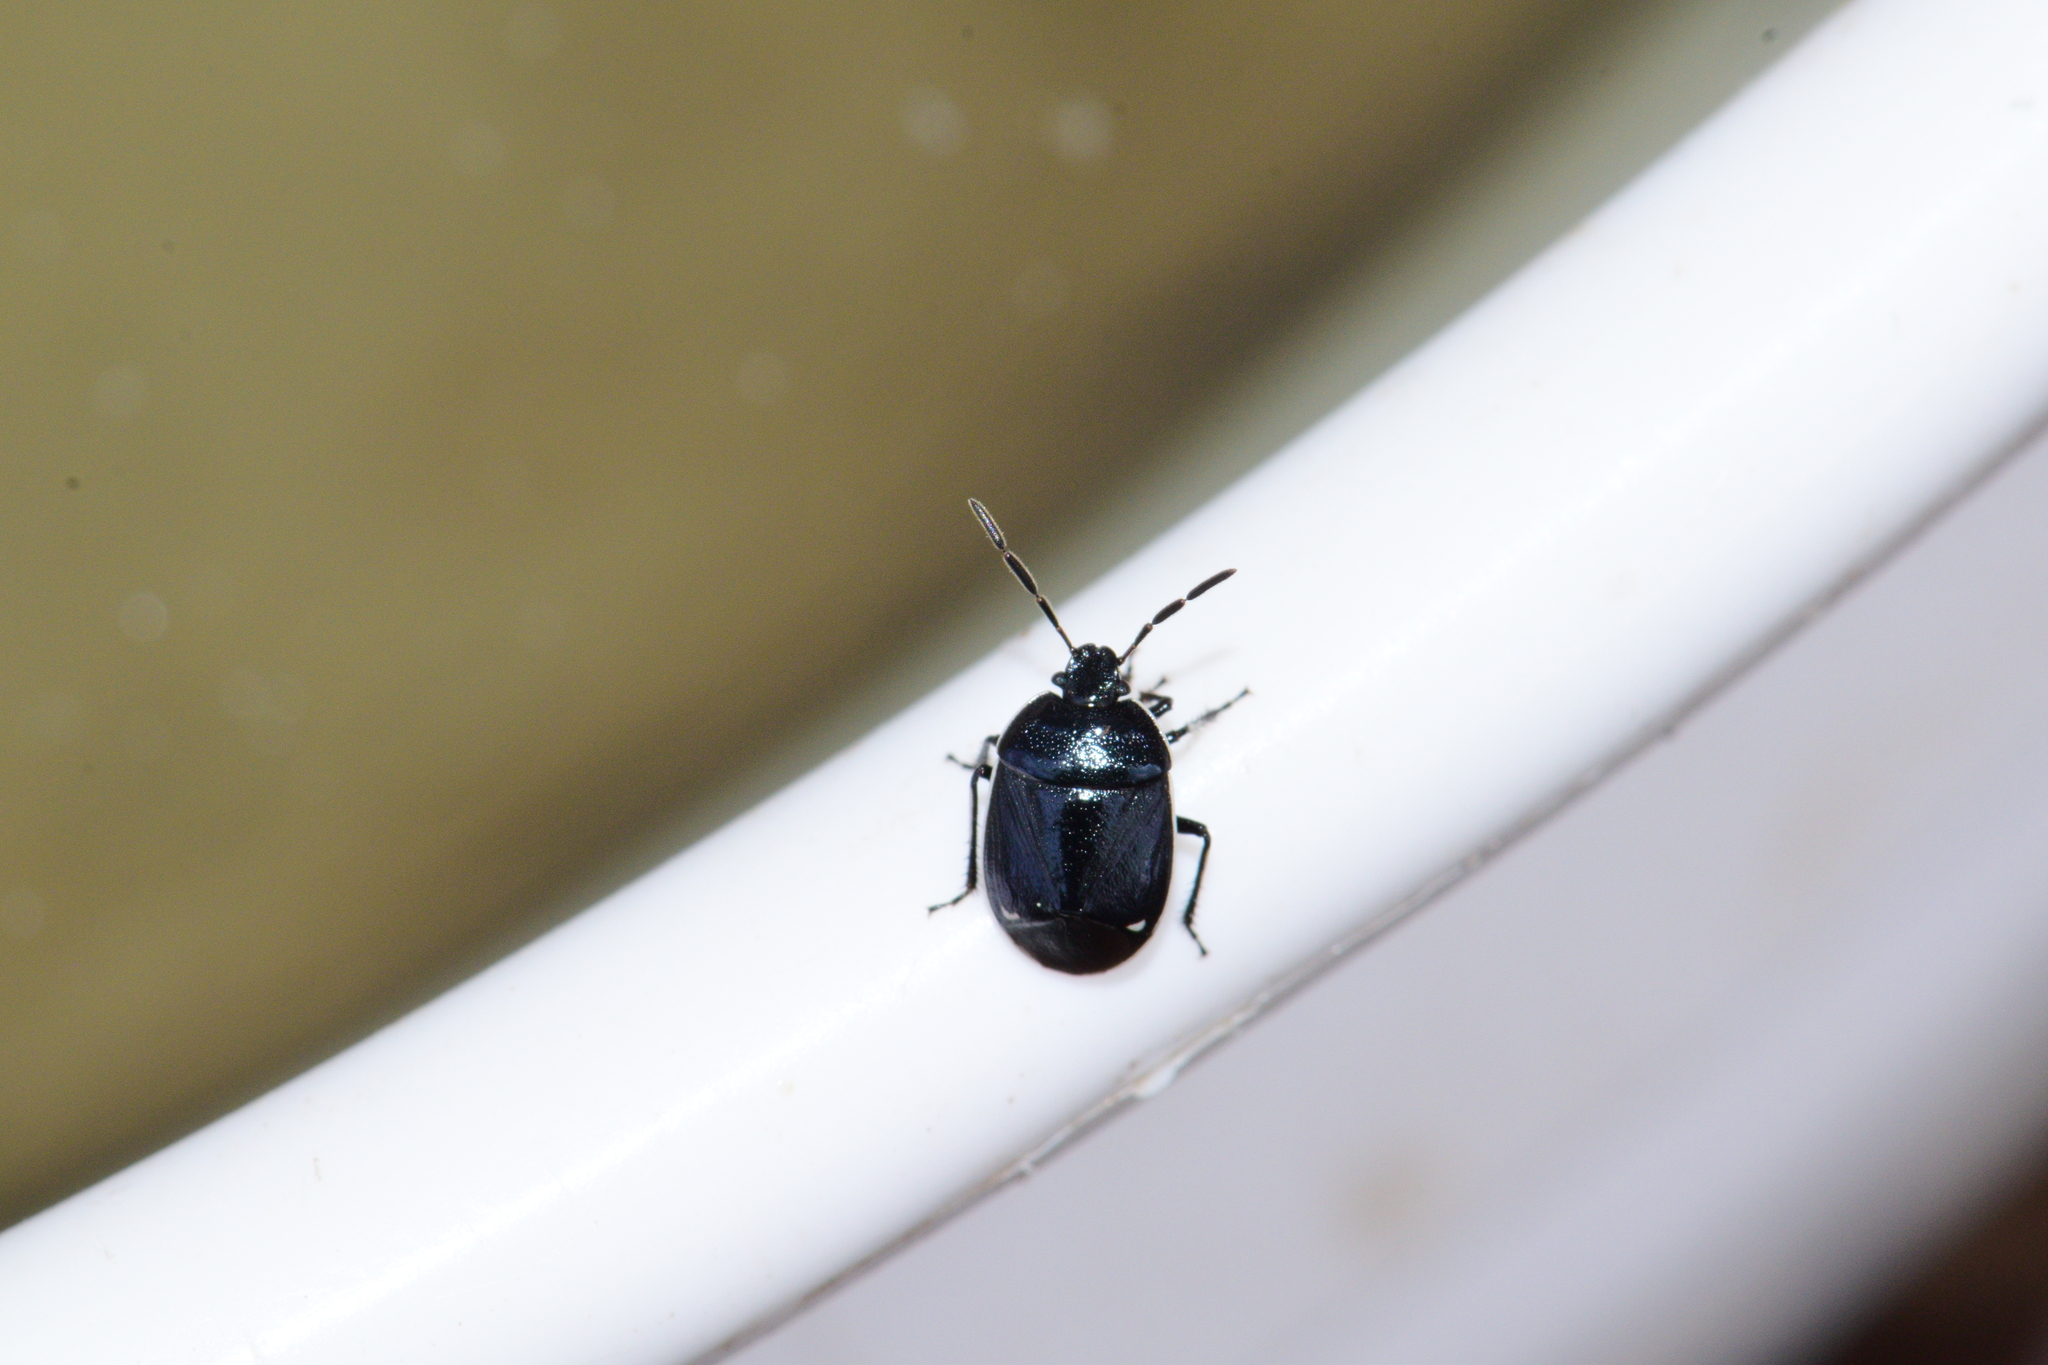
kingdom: Animalia
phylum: Arthropoda
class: Insecta
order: Hemiptera
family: Cydnidae
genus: Sehirus
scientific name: Sehirus cinctus
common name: White-margined burrower bug
